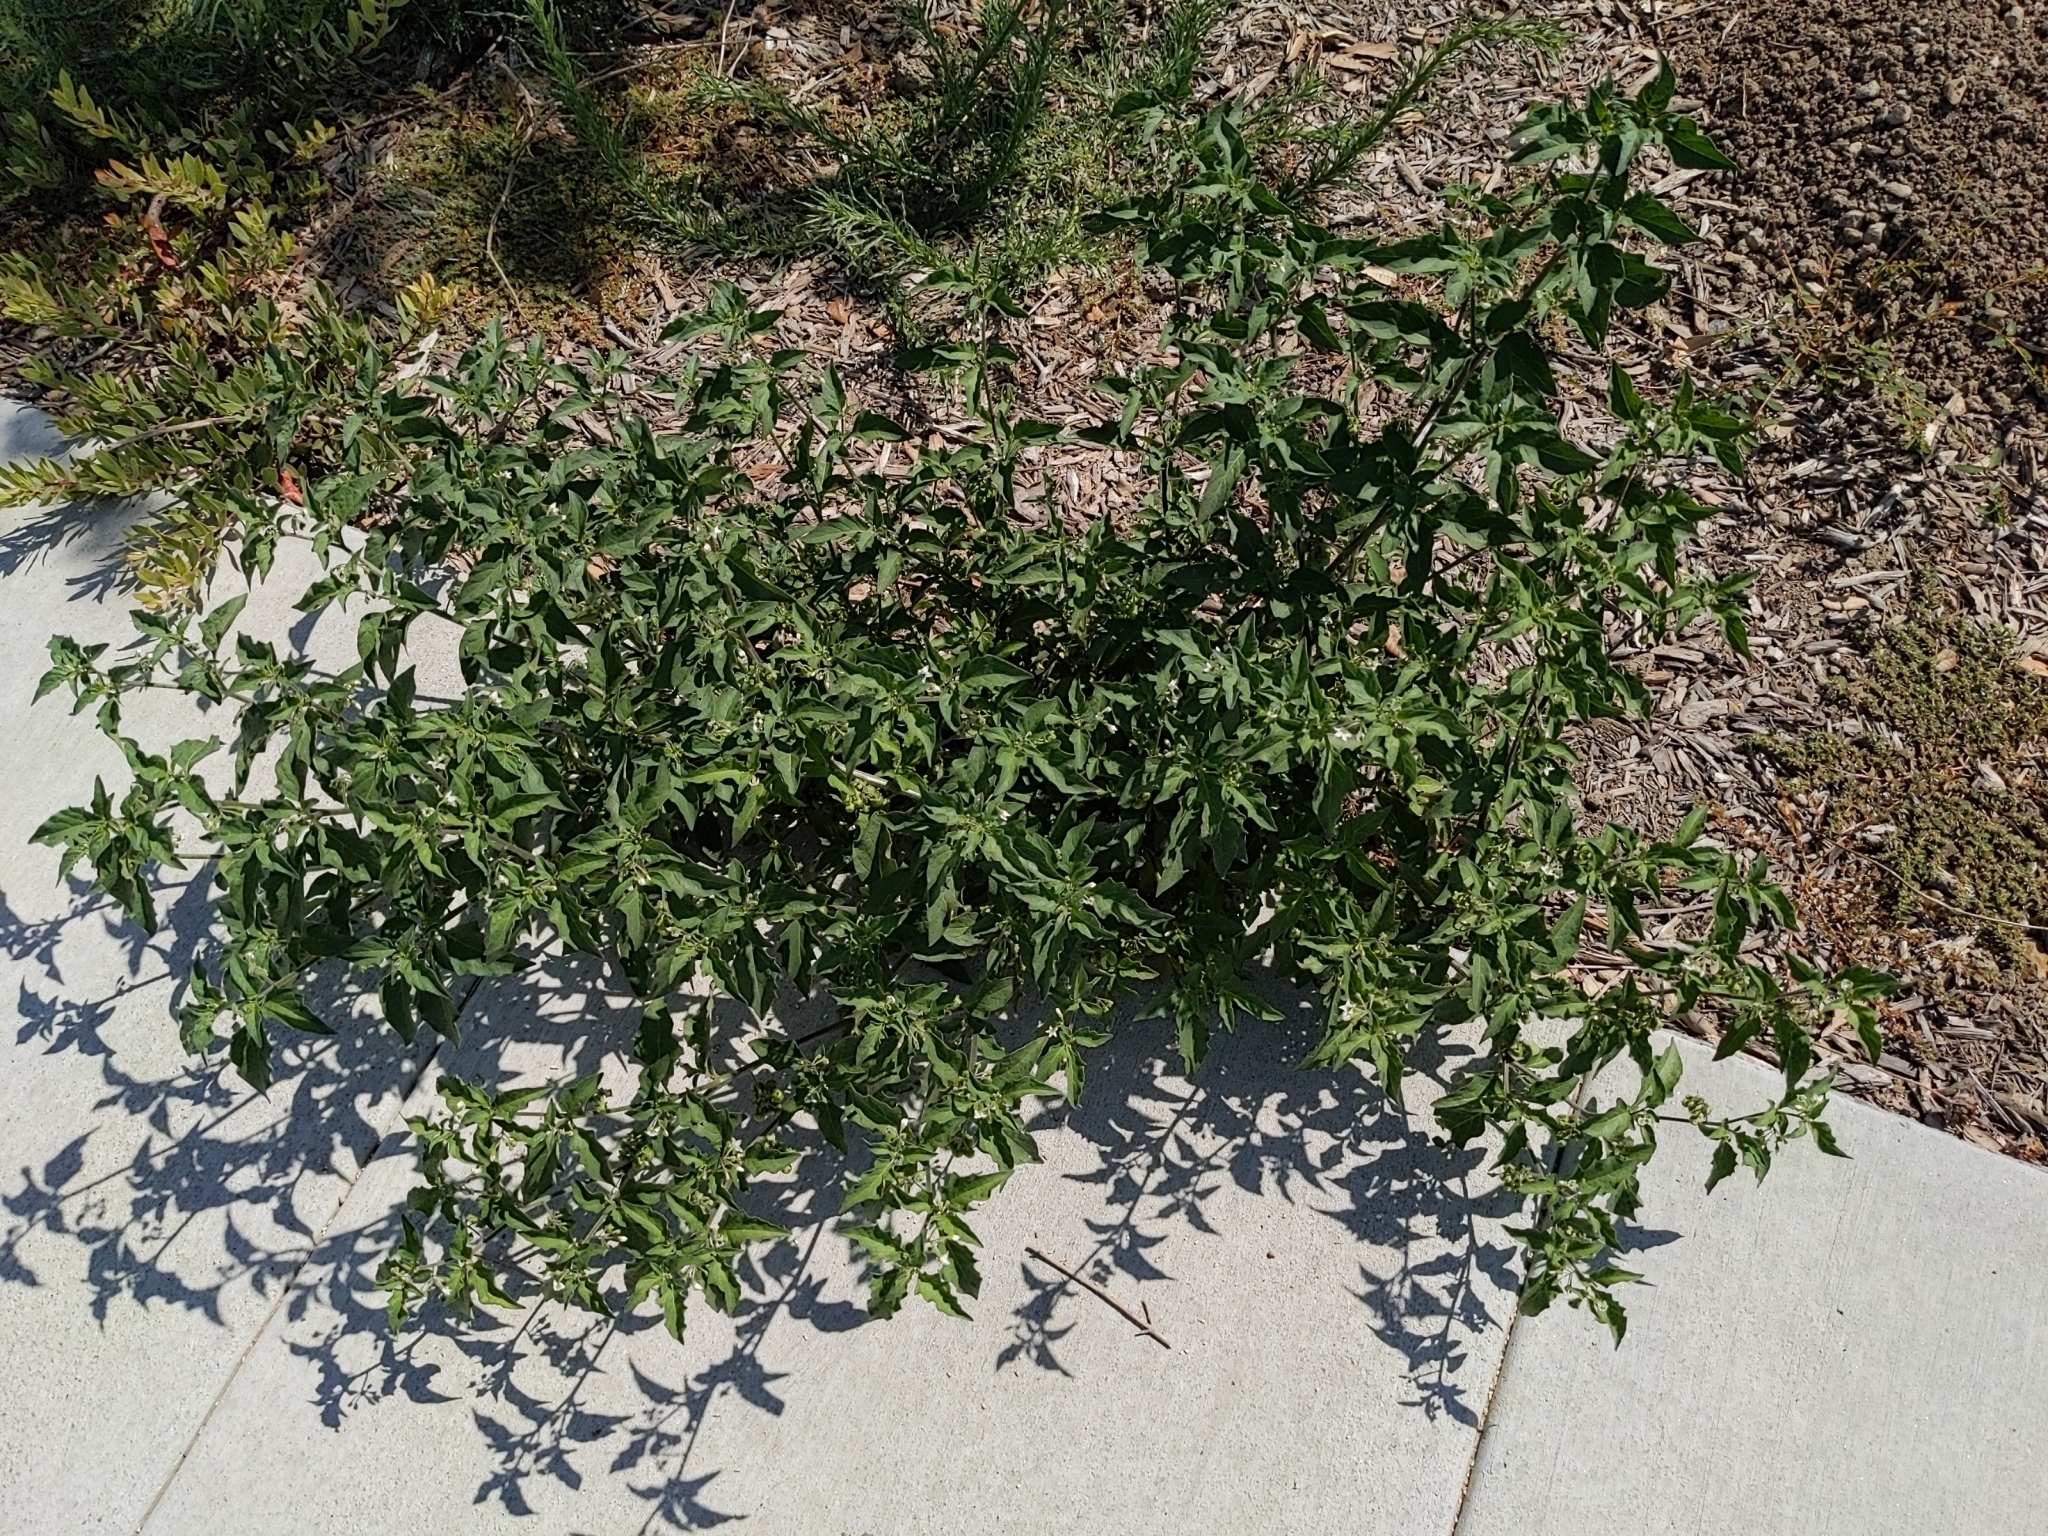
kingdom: Plantae
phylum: Tracheophyta
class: Magnoliopsida
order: Solanales
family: Solanaceae
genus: Solanum
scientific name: Solanum nigrum
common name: Black nightshade
